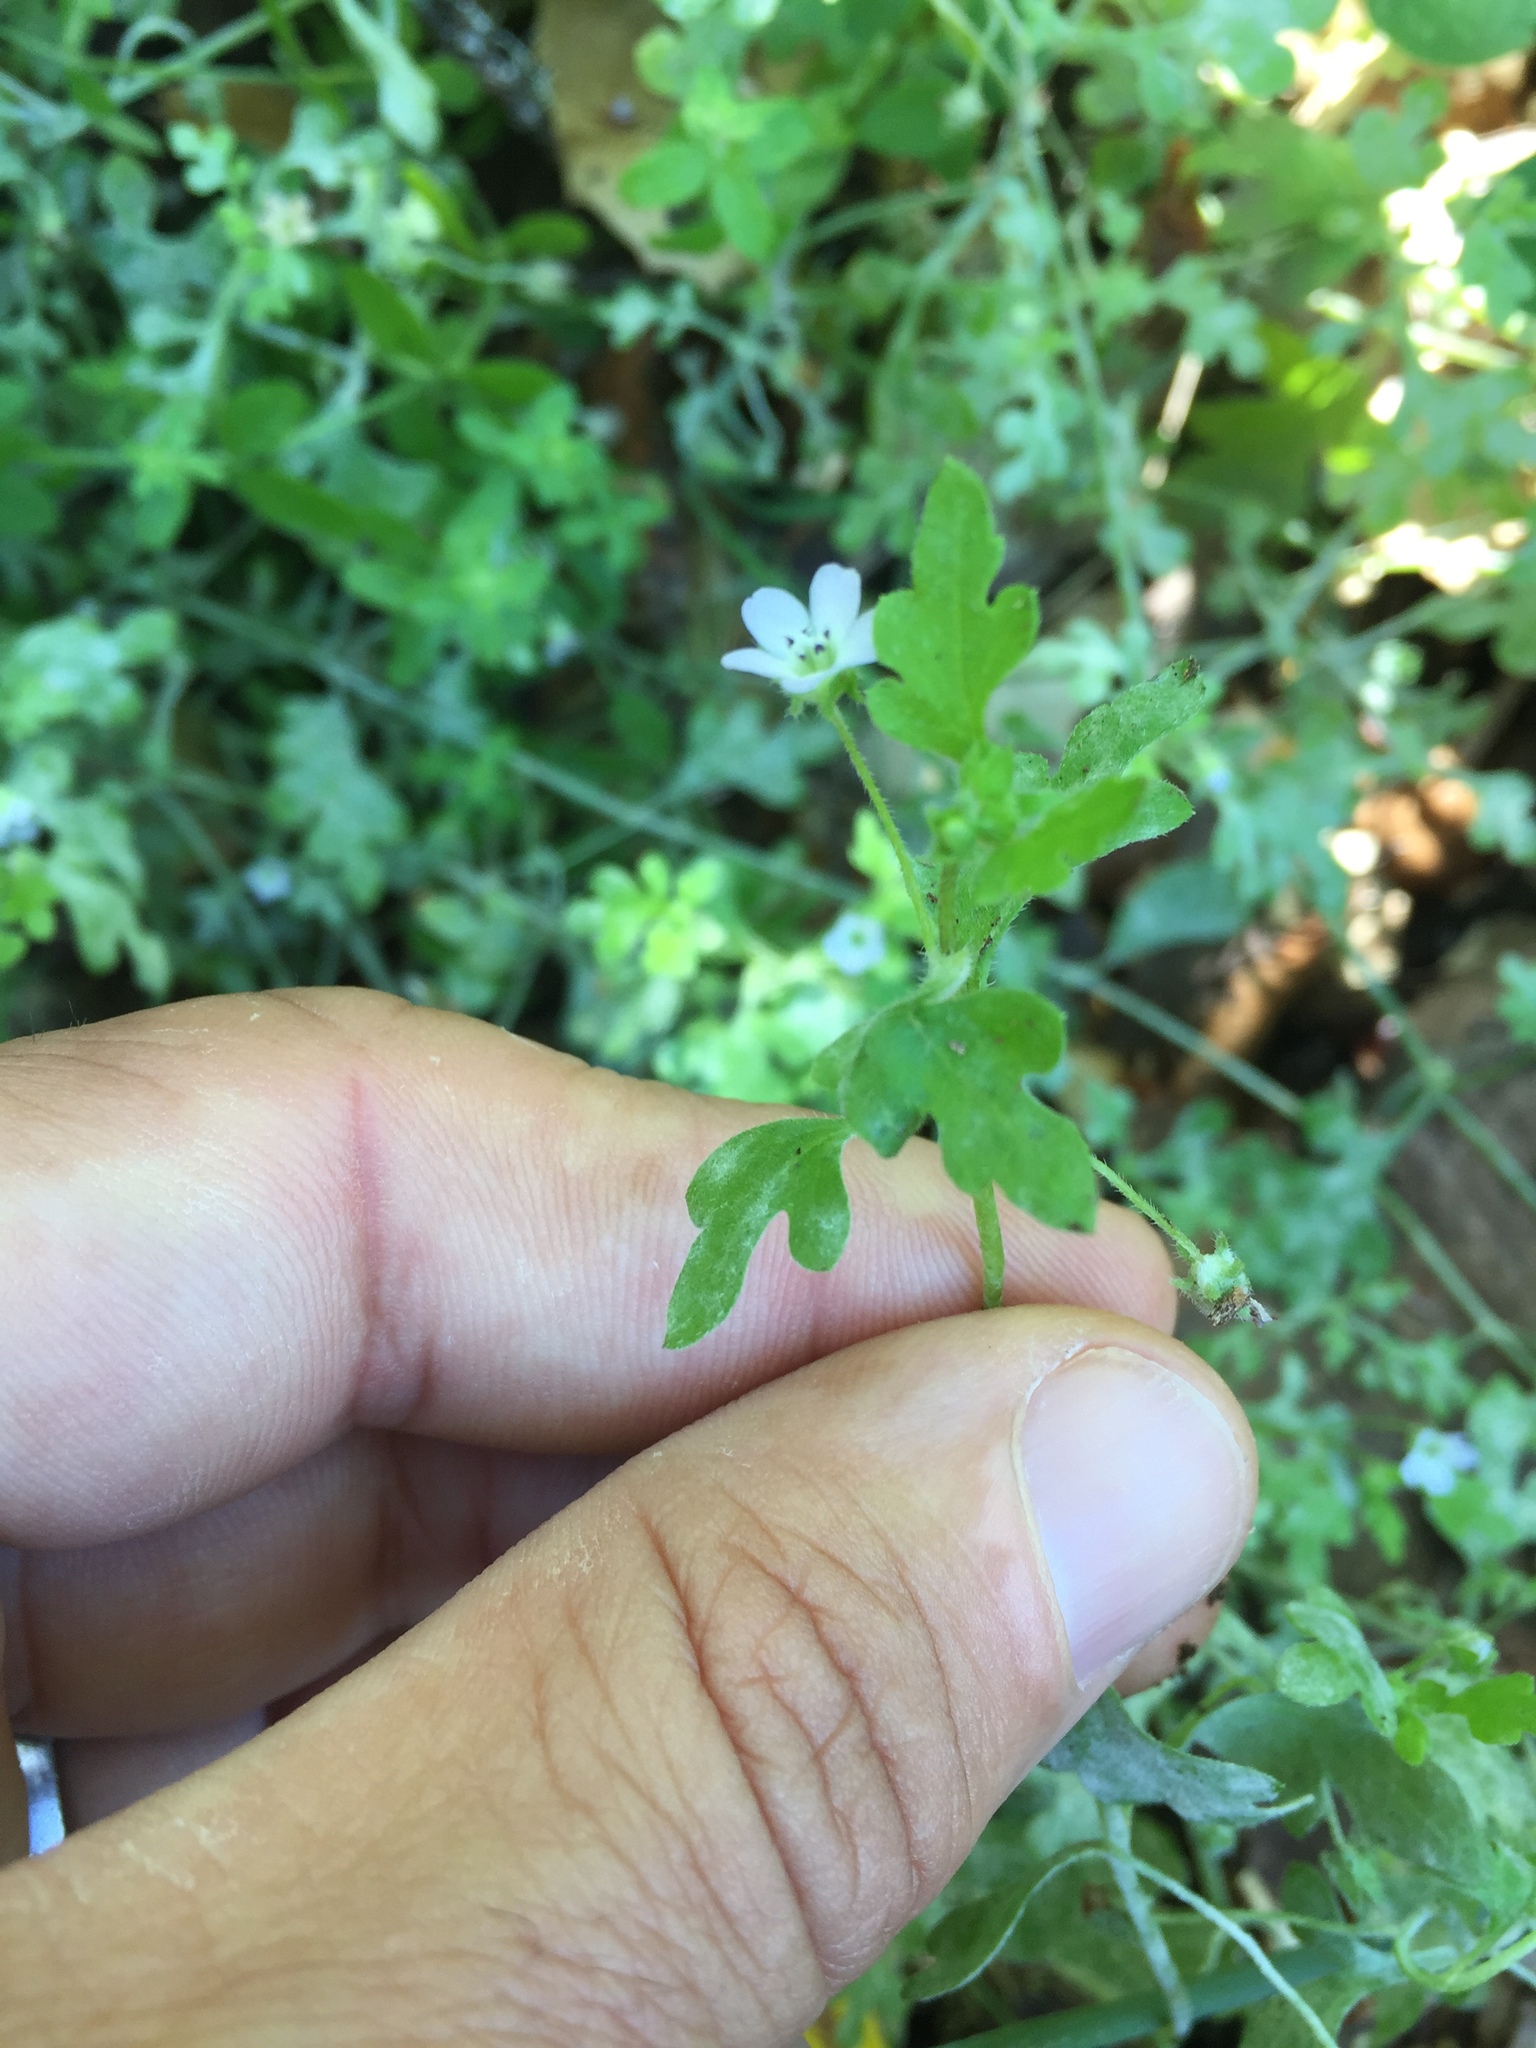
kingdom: Plantae
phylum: Tracheophyta
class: Magnoliopsida
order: Boraginales
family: Hydrophyllaceae
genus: Nemophila
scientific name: Nemophila parviflora
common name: Small-flowered baby-blue-eyes
